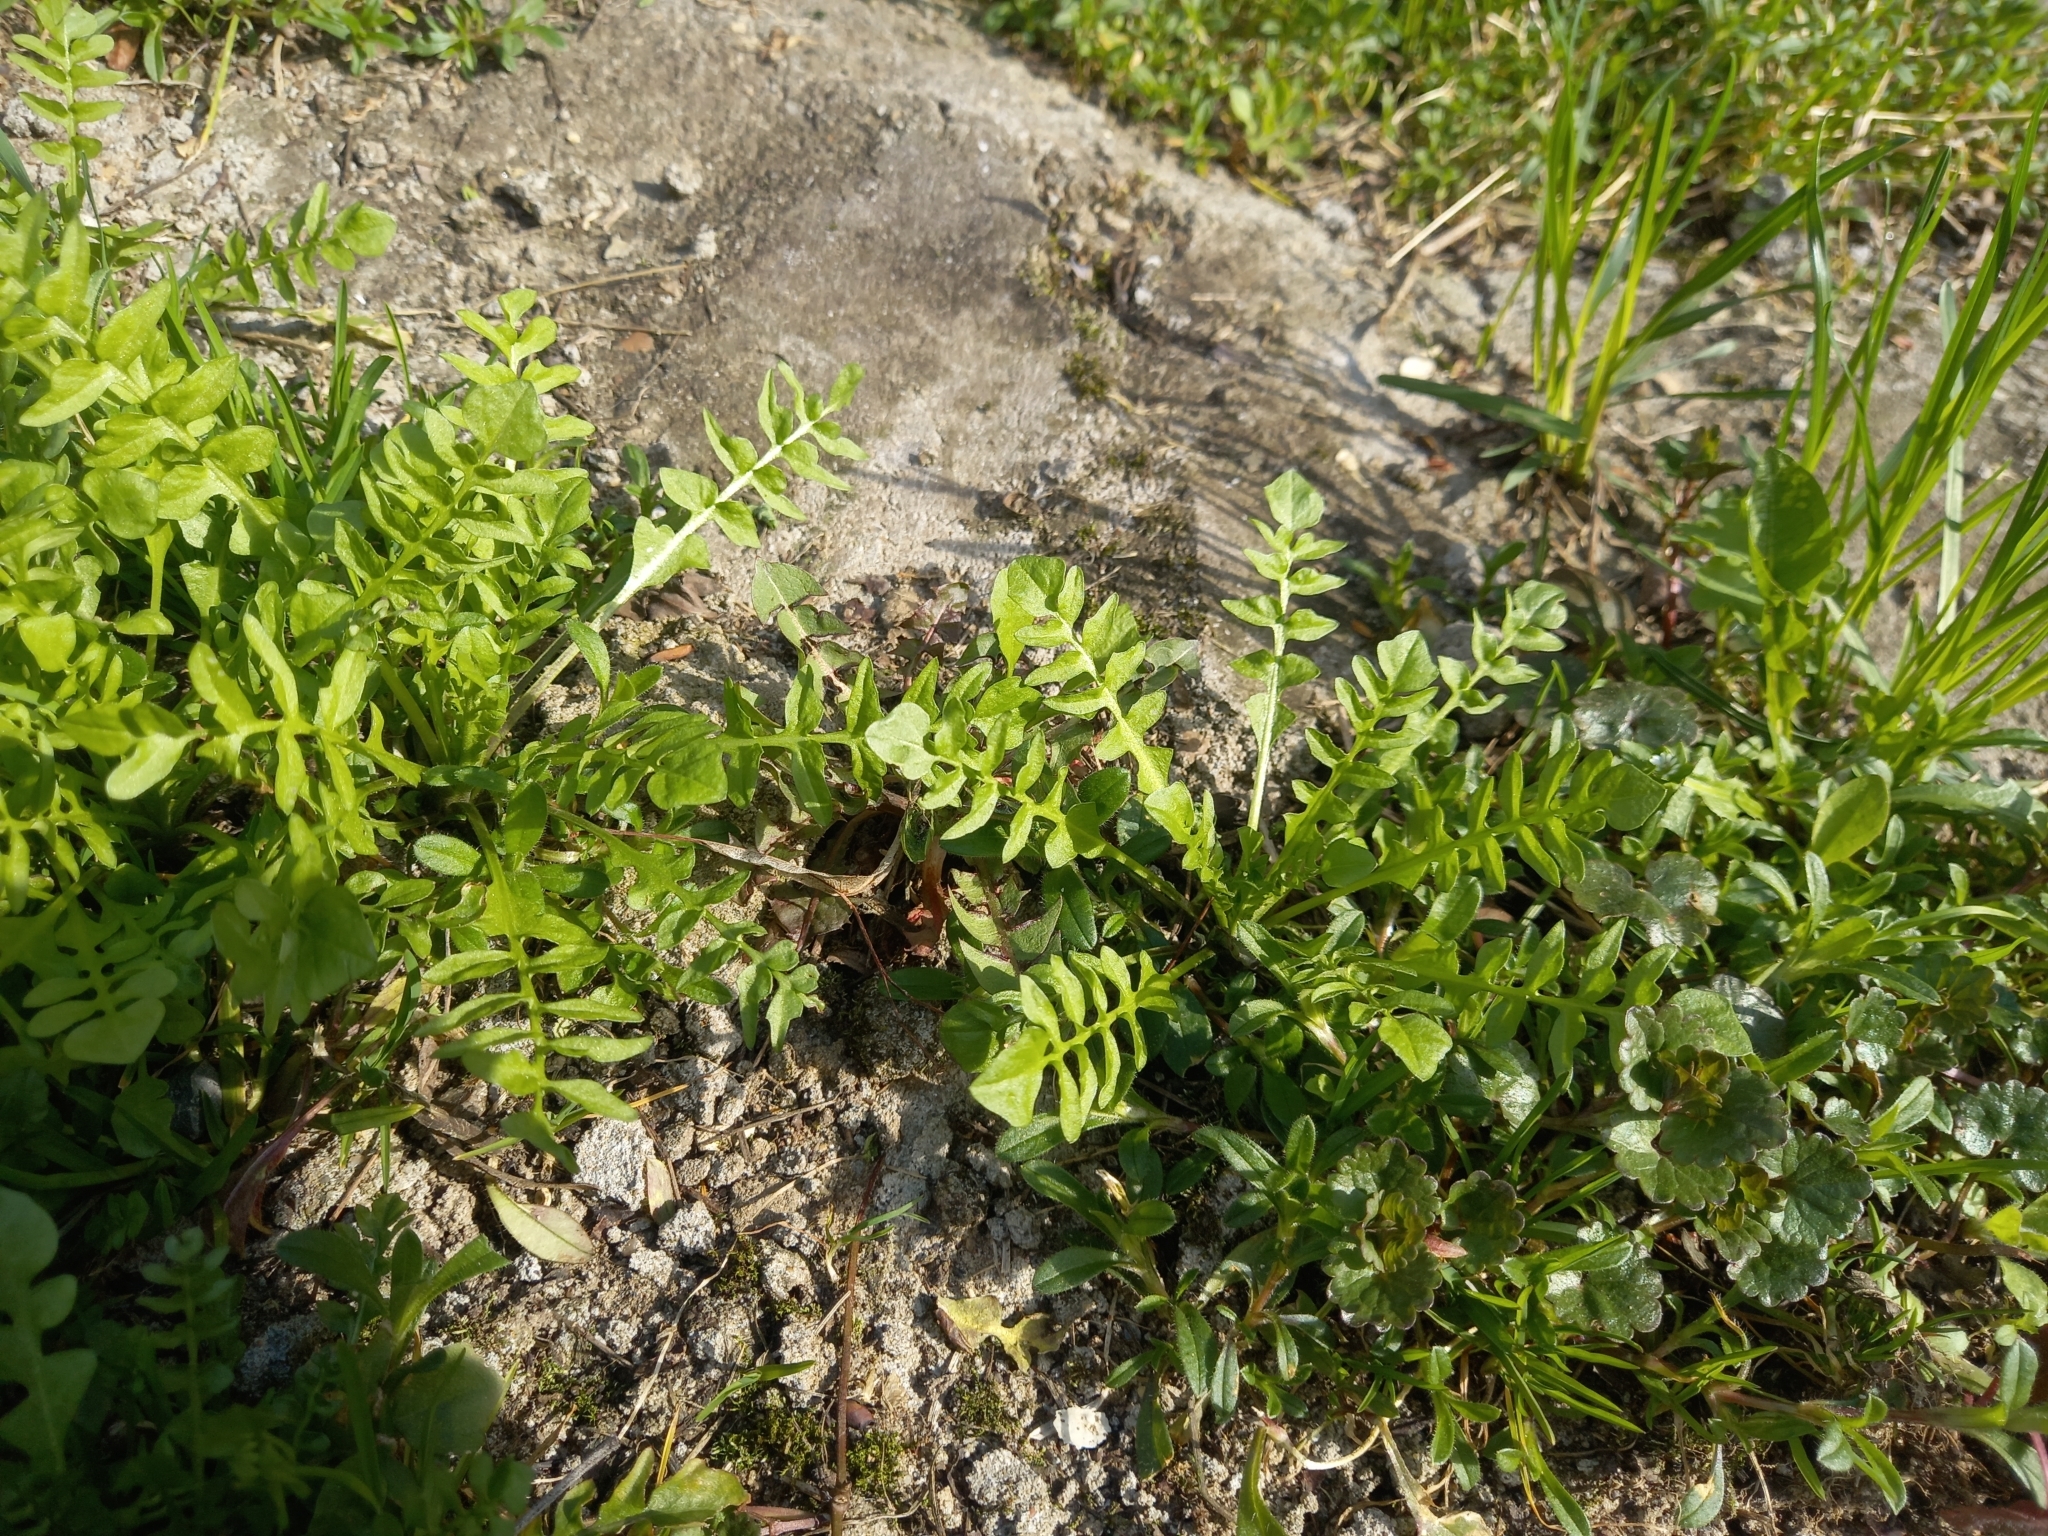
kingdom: Plantae
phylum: Tracheophyta
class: Magnoliopsida
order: Brassicales
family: Brassicaceae
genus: Capsella
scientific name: Capsella bursa-pastoris
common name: Shepherd's purse
